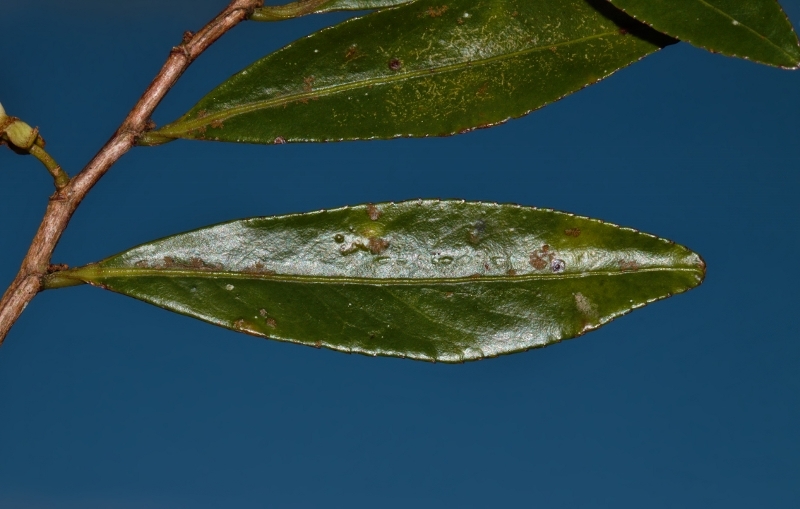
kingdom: Plantae
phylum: Tracheophyta
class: Magnoliopsida
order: Crossosomatales
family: Aphloiaceae
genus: Aphloia
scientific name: Aphloia theiformis
